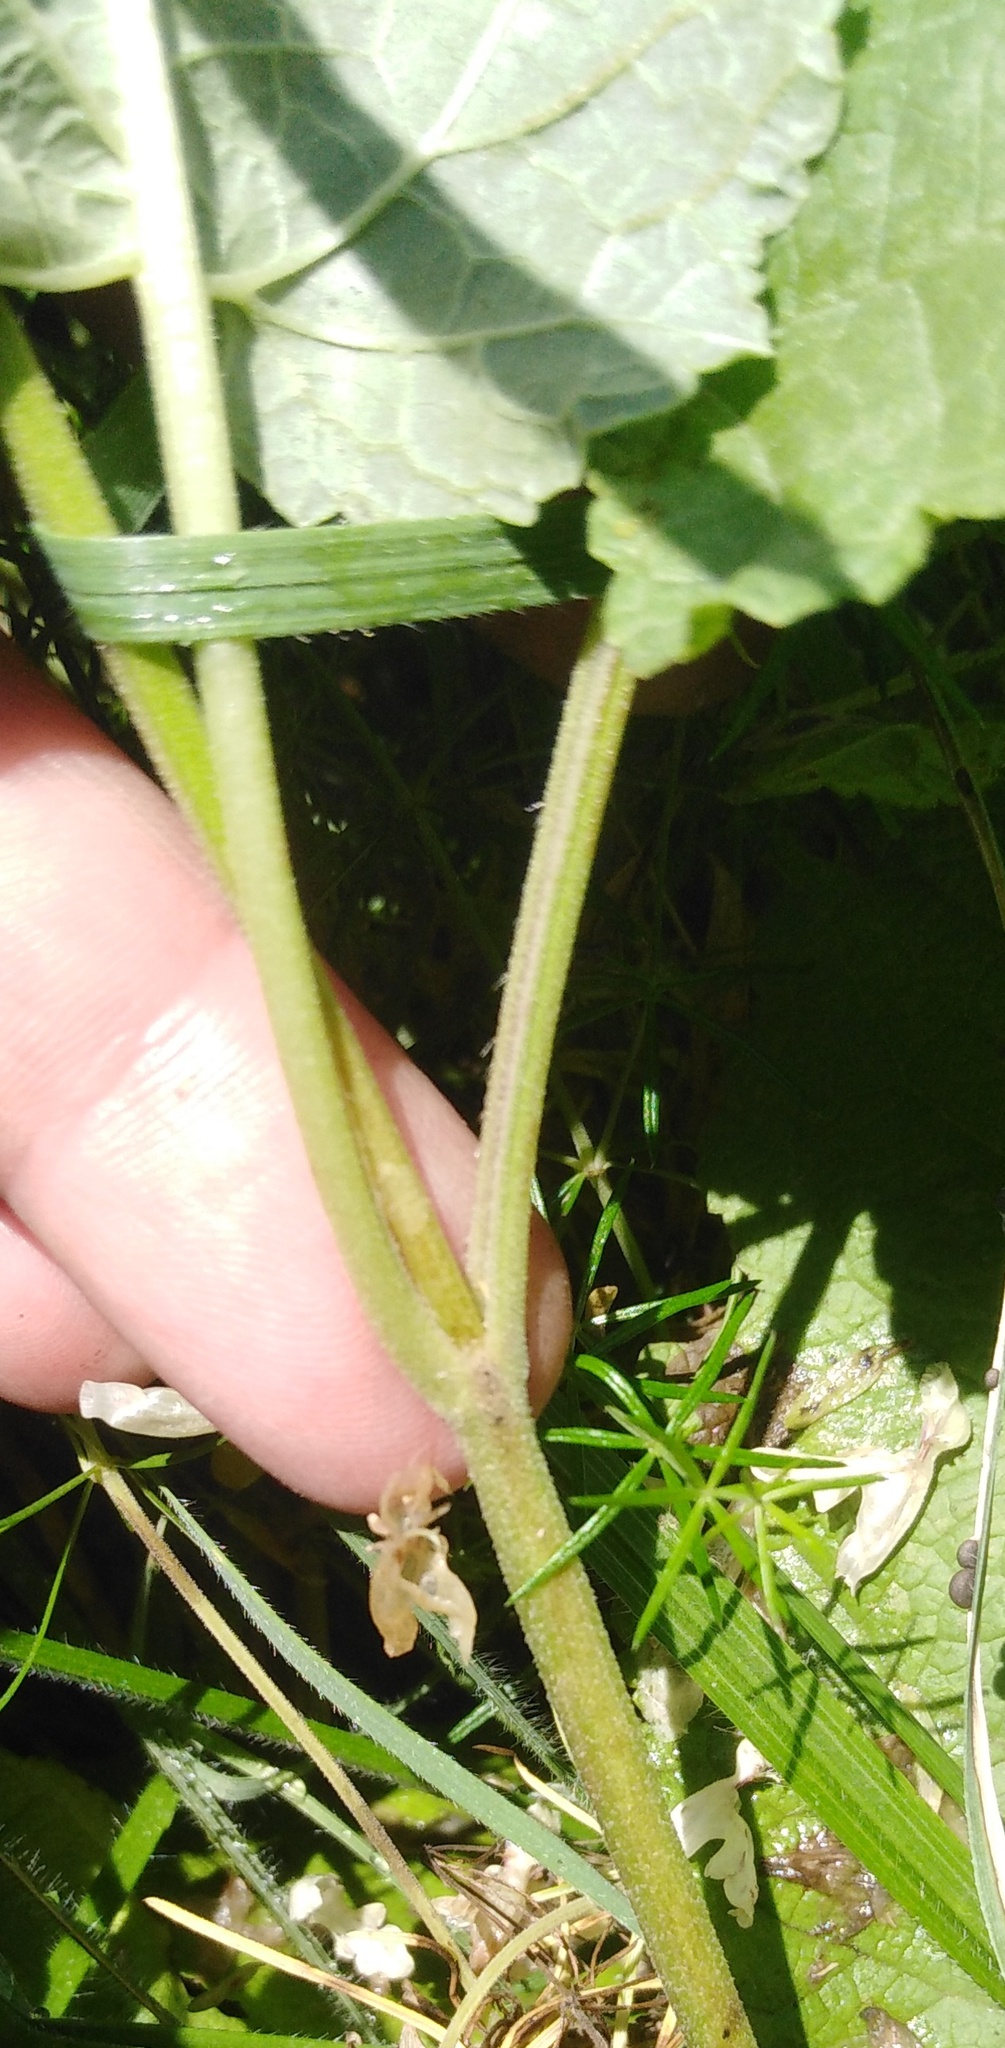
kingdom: Plantae
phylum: Tracheophyta
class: Magnoliopsida
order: Lamiales
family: Lamiaceae
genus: Salvia
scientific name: Salvia dumetorum
